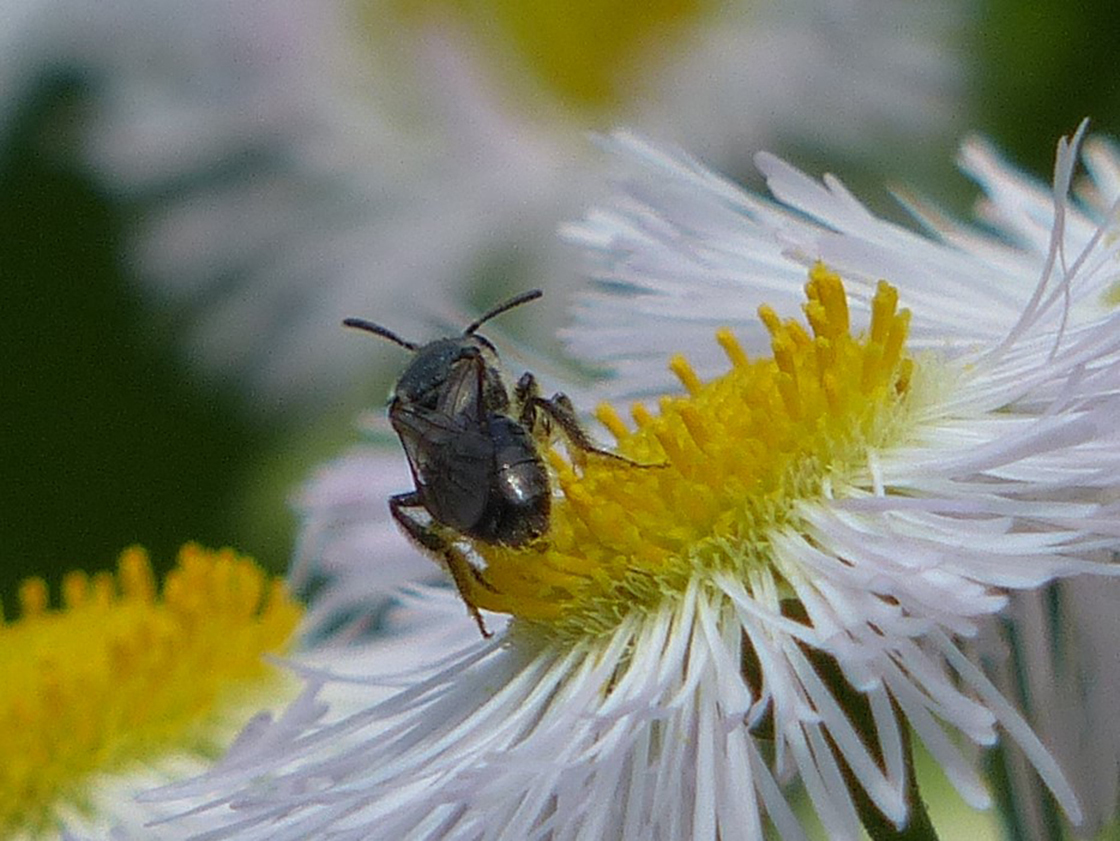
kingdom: Animalia
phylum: Arthropoda
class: Insecta
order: Hymenoptera
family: Halictidae
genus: Dialictus
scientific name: Dialictus
